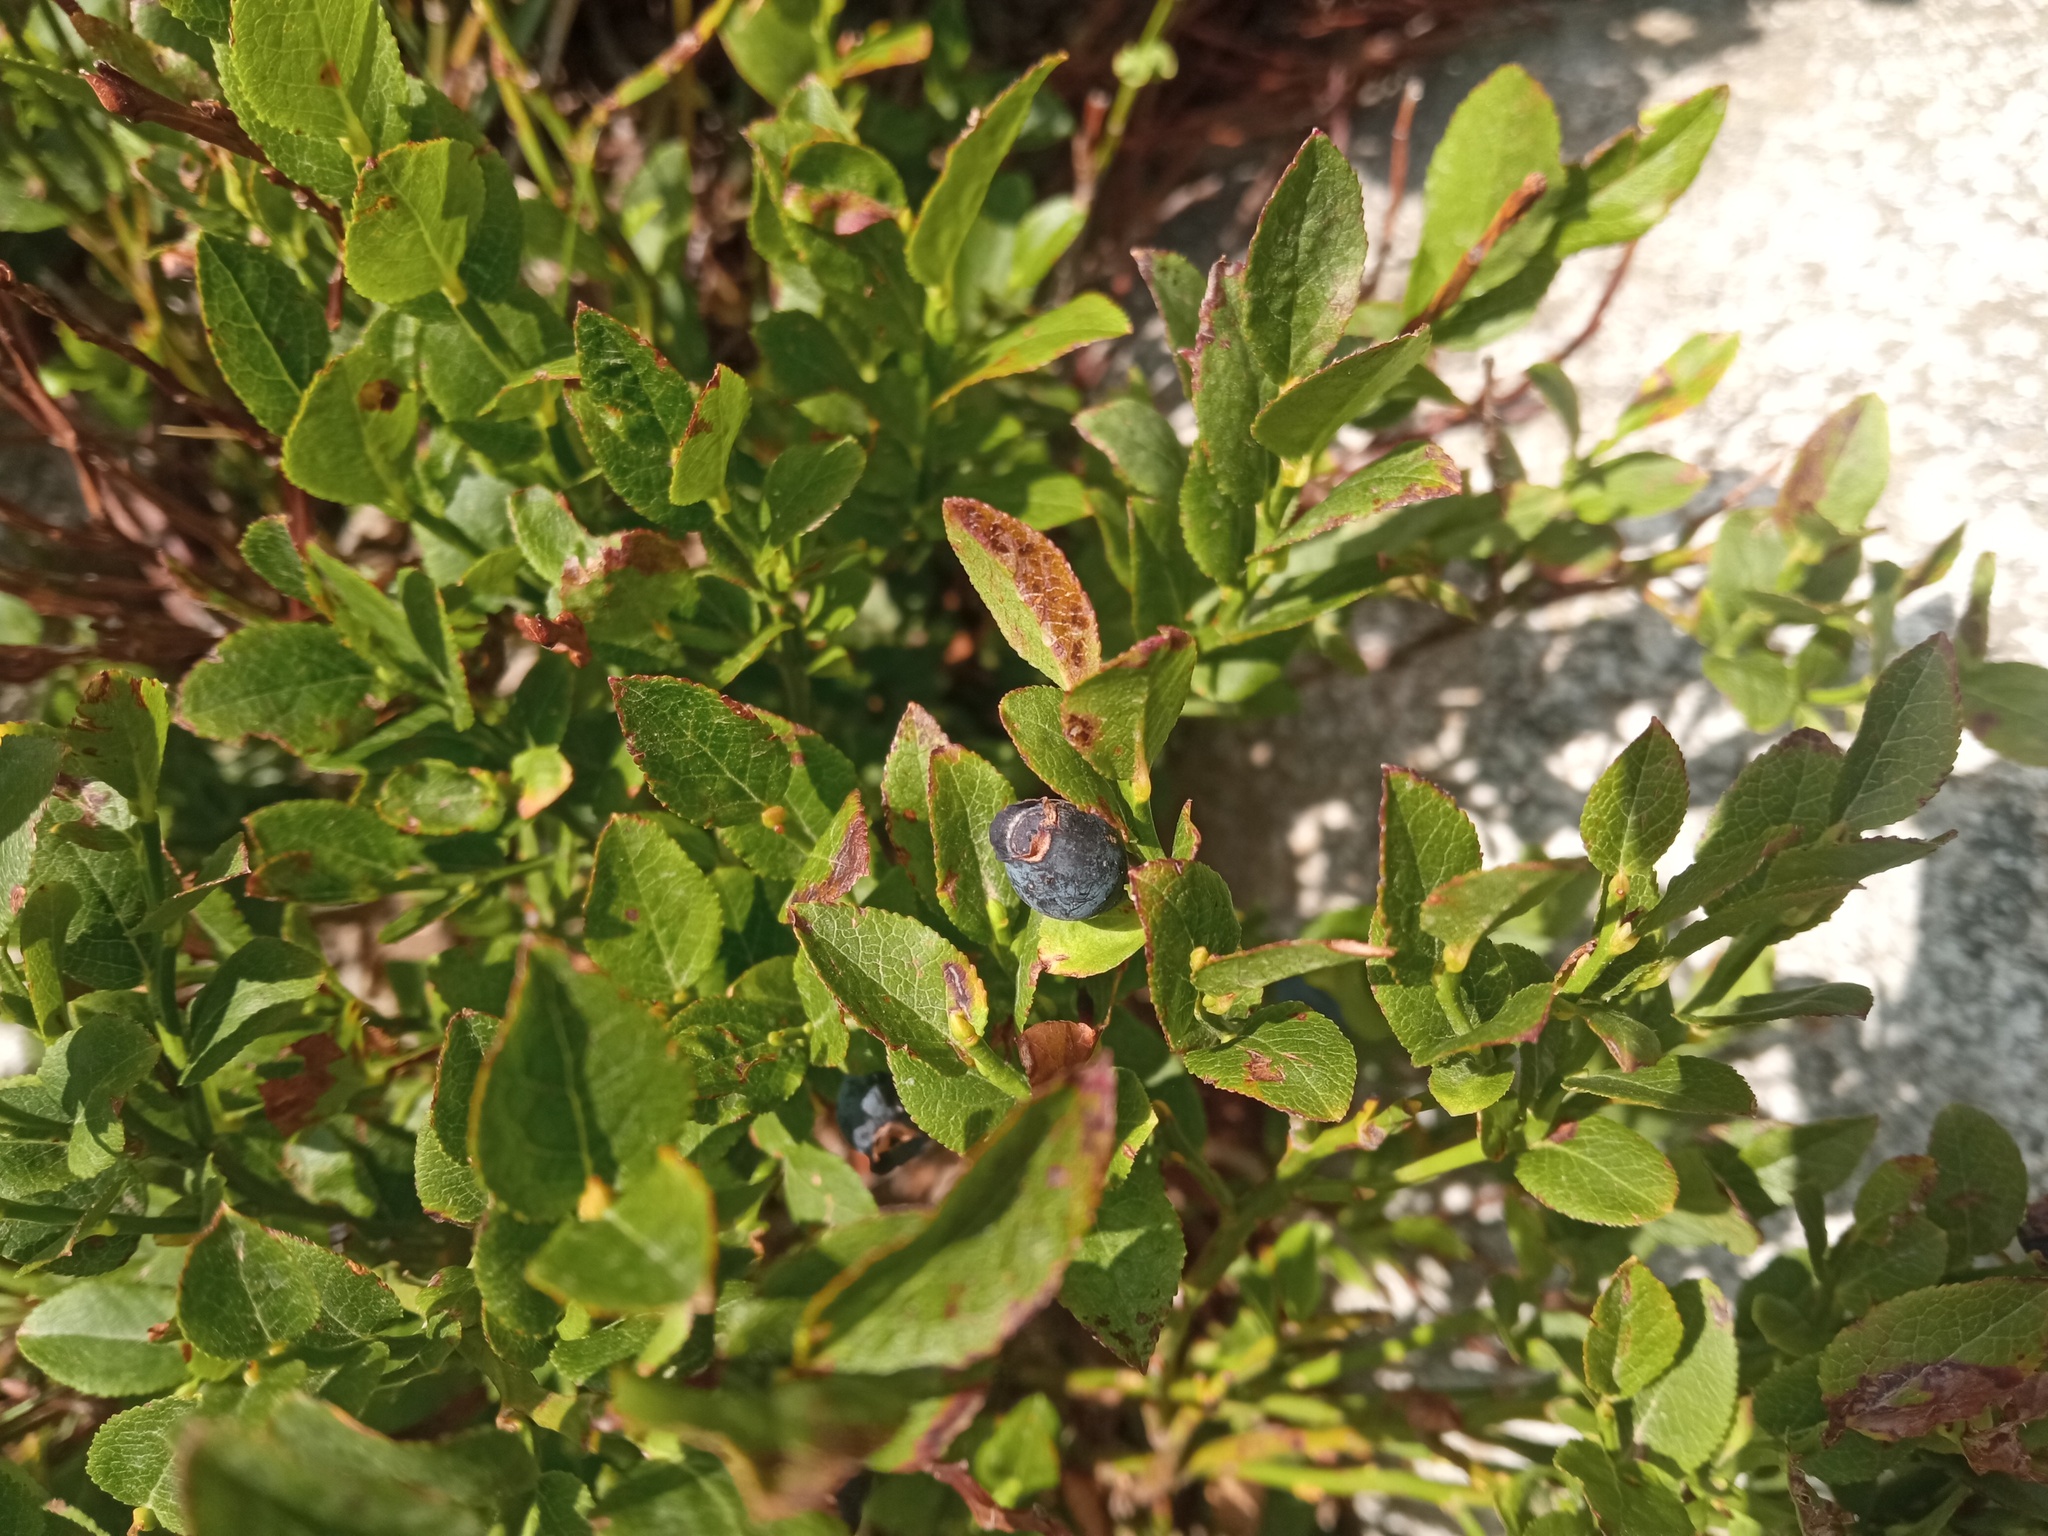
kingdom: Plantae
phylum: Tracheophyta
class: Magnoliopsida
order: Ericales
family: Ericaceae
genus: Vaccinium
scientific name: Vaccinium myrtillus
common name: Bilberry
